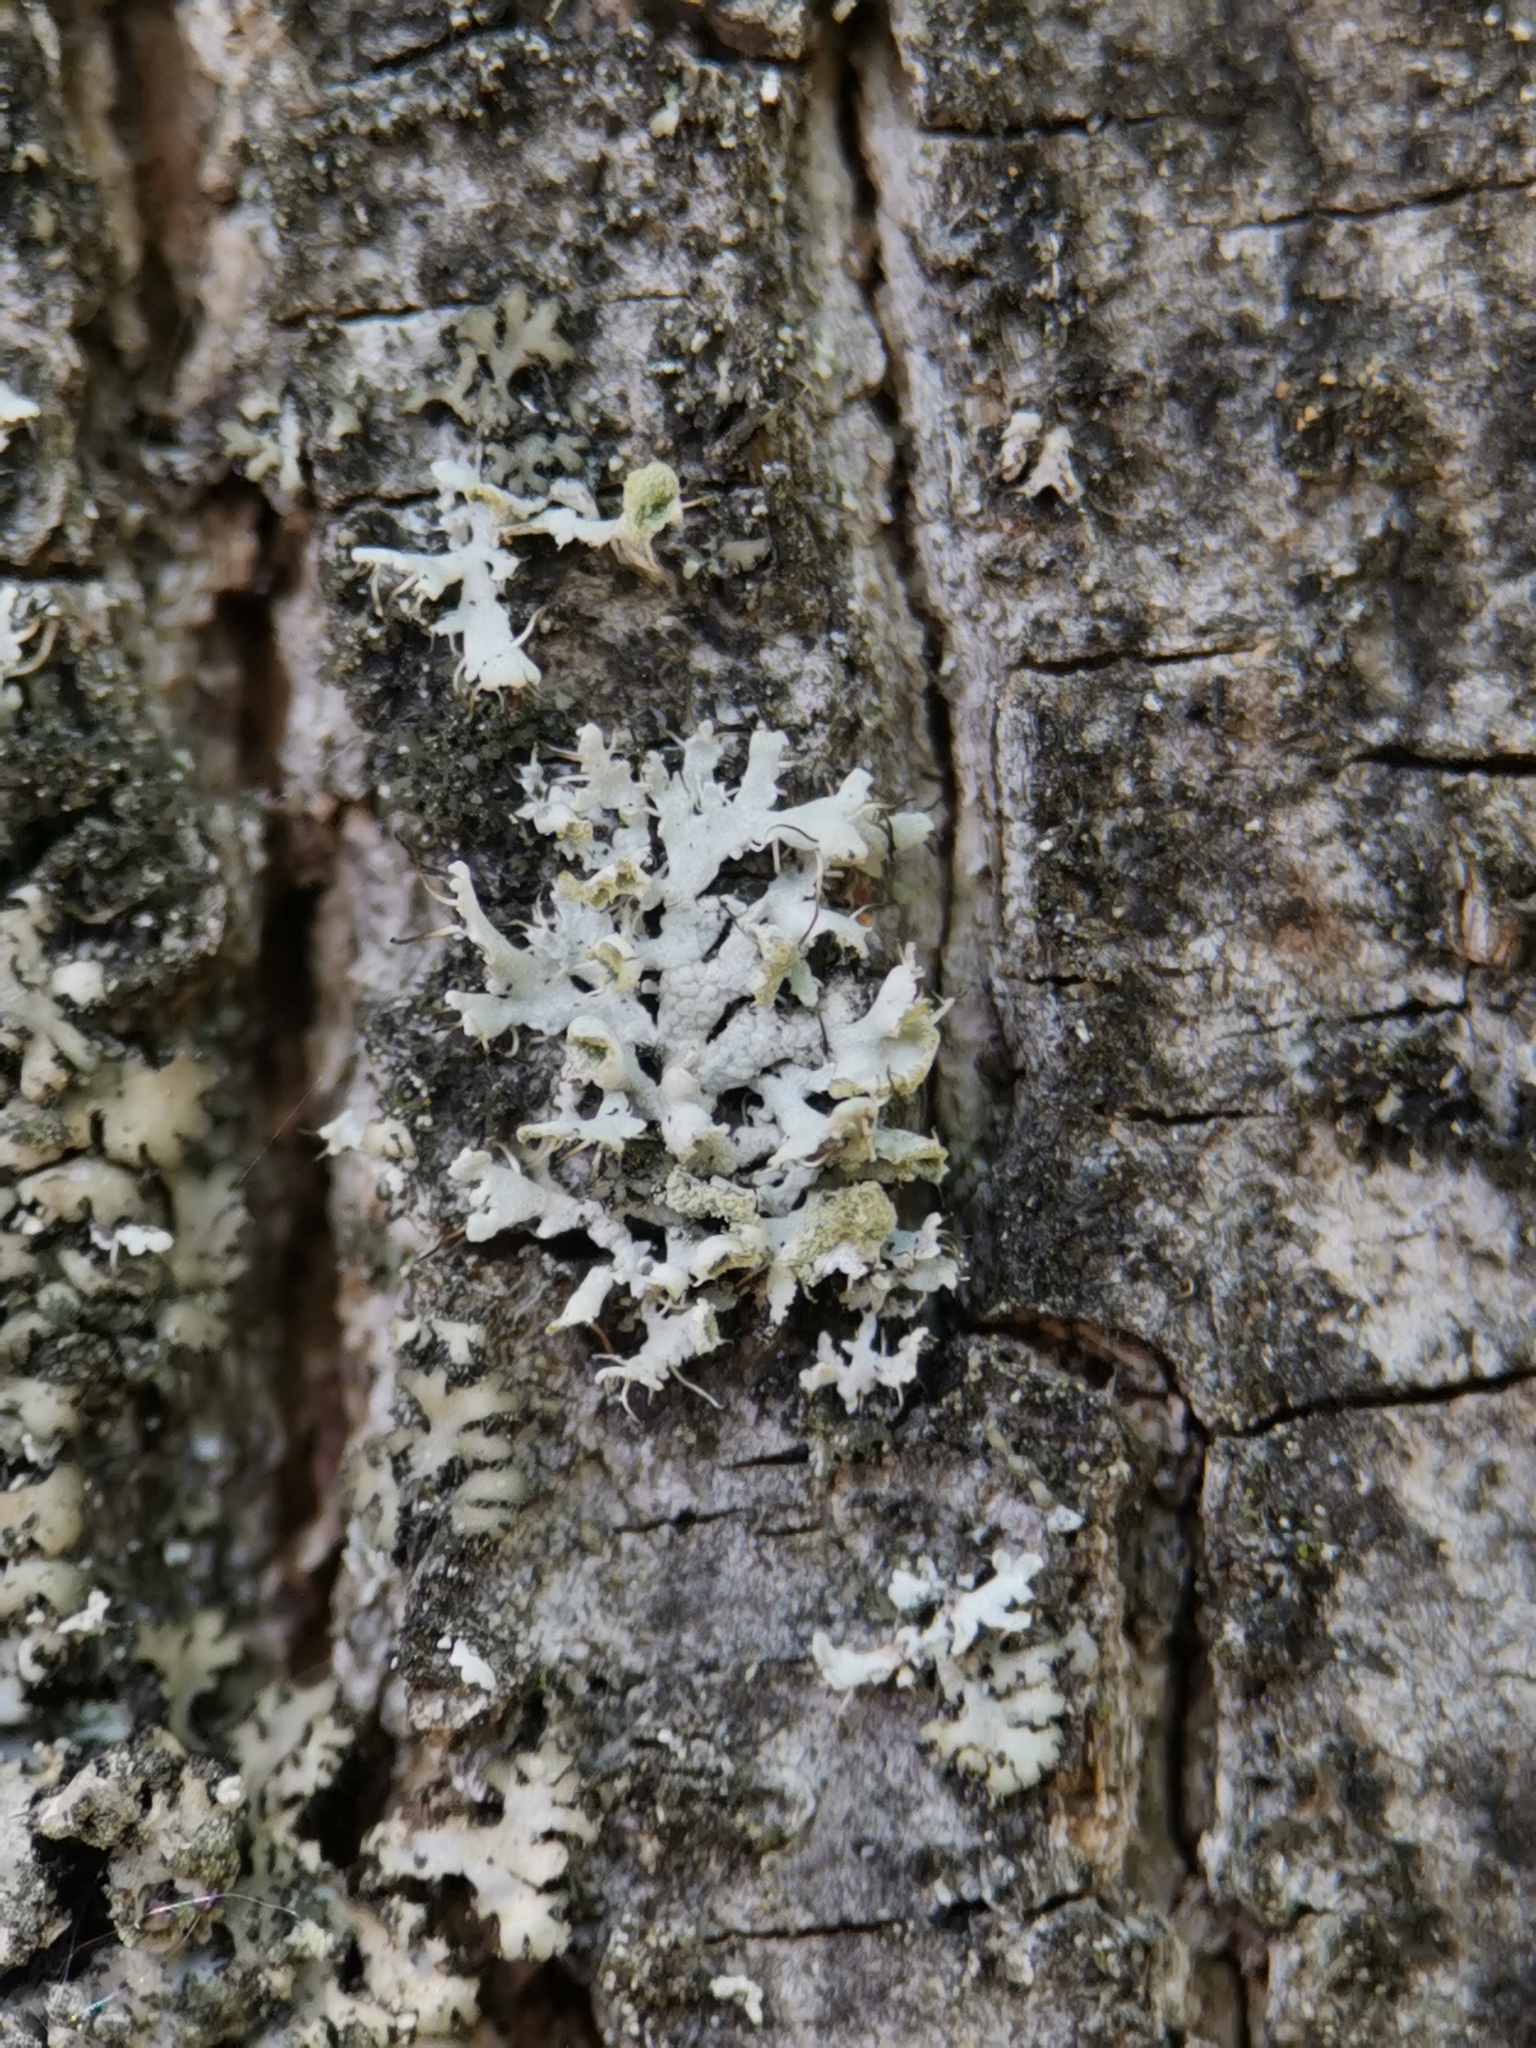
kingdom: Fungi
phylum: Ascomycota
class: Lecanoromycetes
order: Caliciales
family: Physciaceae
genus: Physcia
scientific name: Physcia adscendens
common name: Hooded rosette lichen
